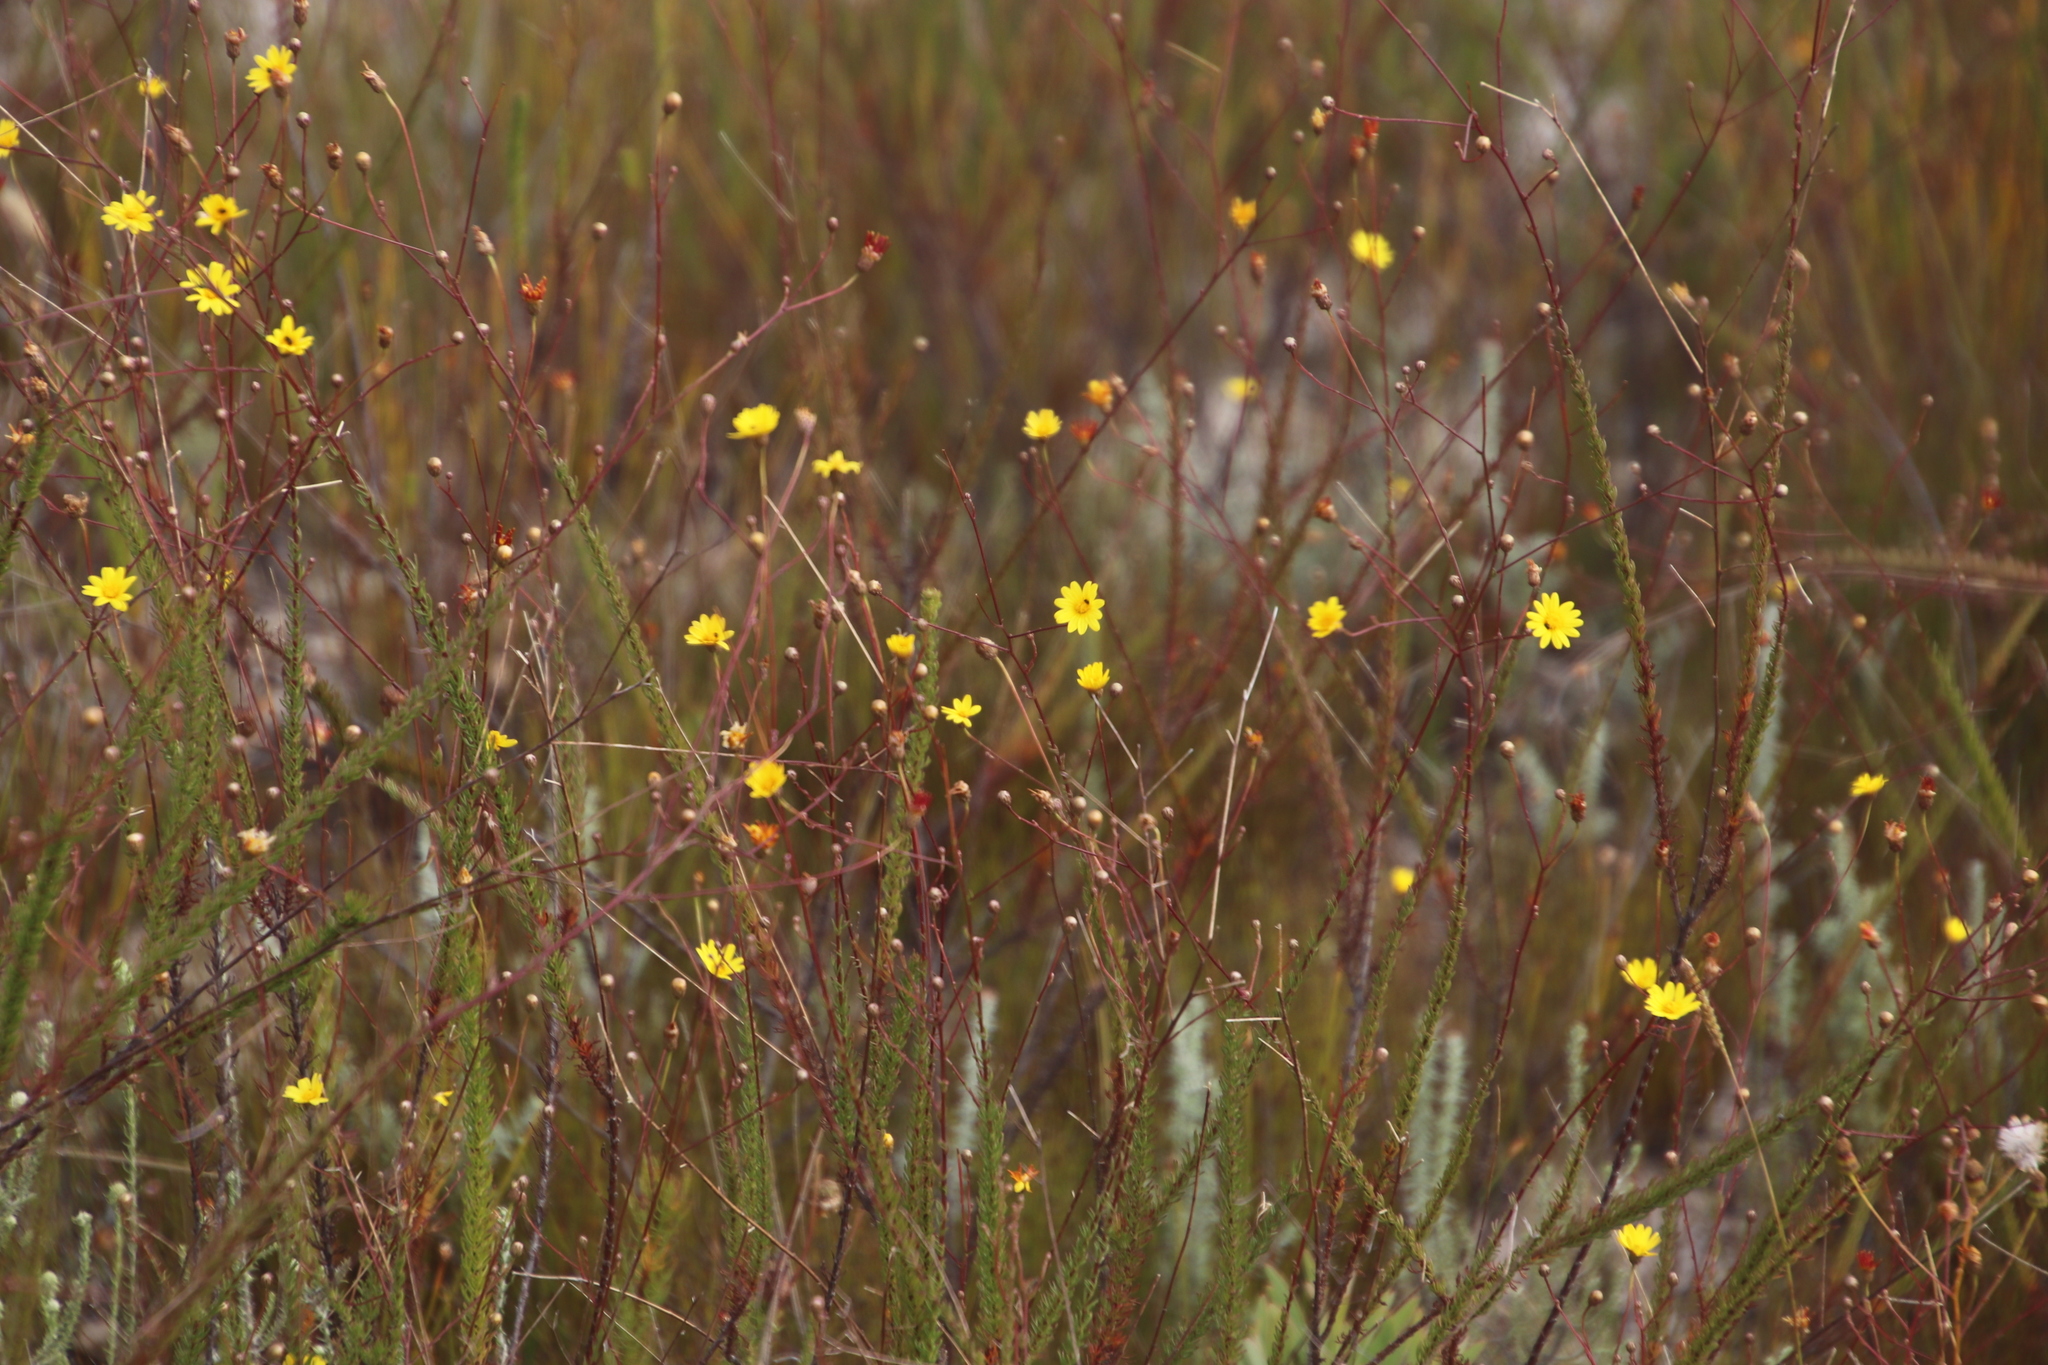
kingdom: Plantae
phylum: Tracheophyta
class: Magnoliopsida
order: Asterales
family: Asteraceae
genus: Ursinia
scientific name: Ursinia punctata
